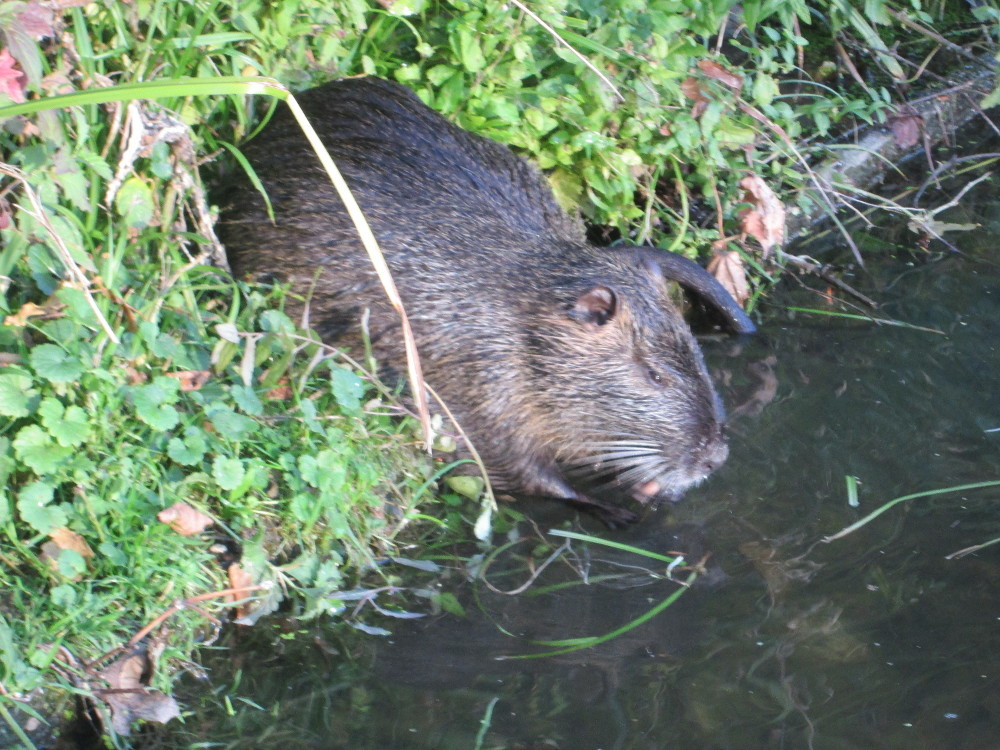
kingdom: Animalia
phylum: Chordata
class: Mammalia
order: Rodentia
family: Myocastoridae
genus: Myocastor
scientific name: Myocastor coypus
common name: Coypu
